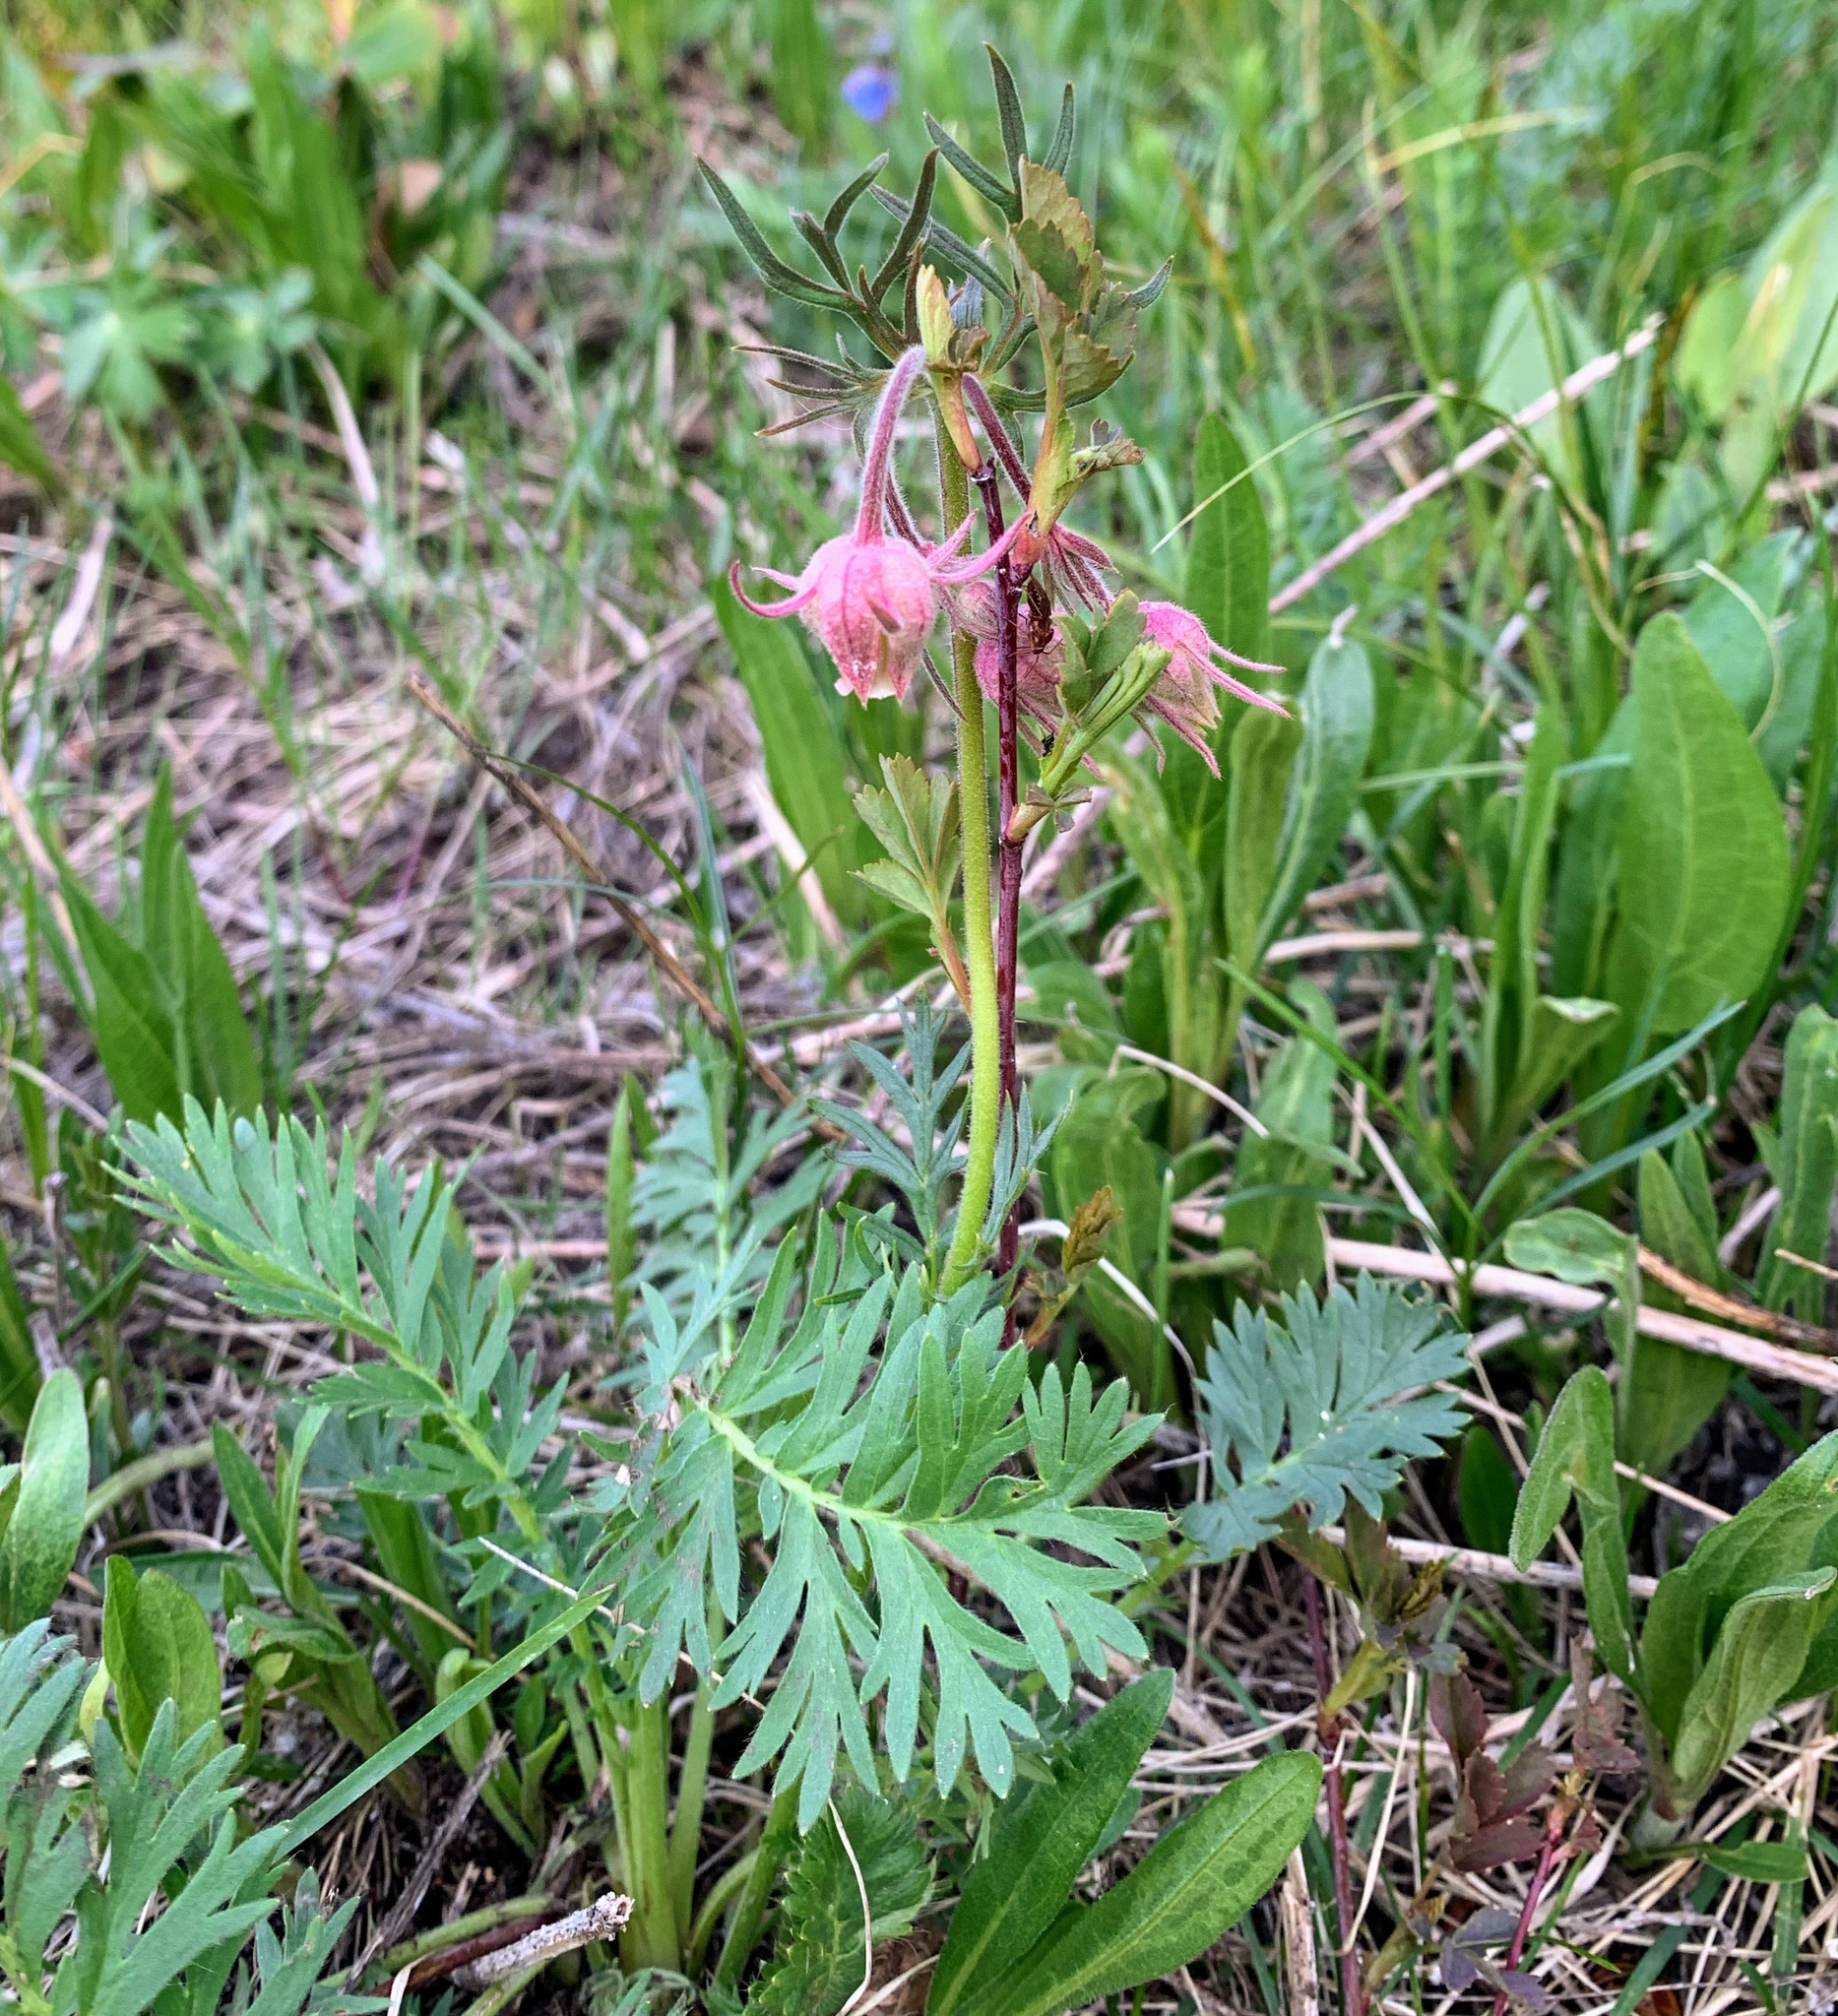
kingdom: Plantae
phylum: Tracheophyta
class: Magnoliopsida
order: Rosales
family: Rosaceae
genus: Geum
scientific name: Geum triflorum
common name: Old man's whiskers
